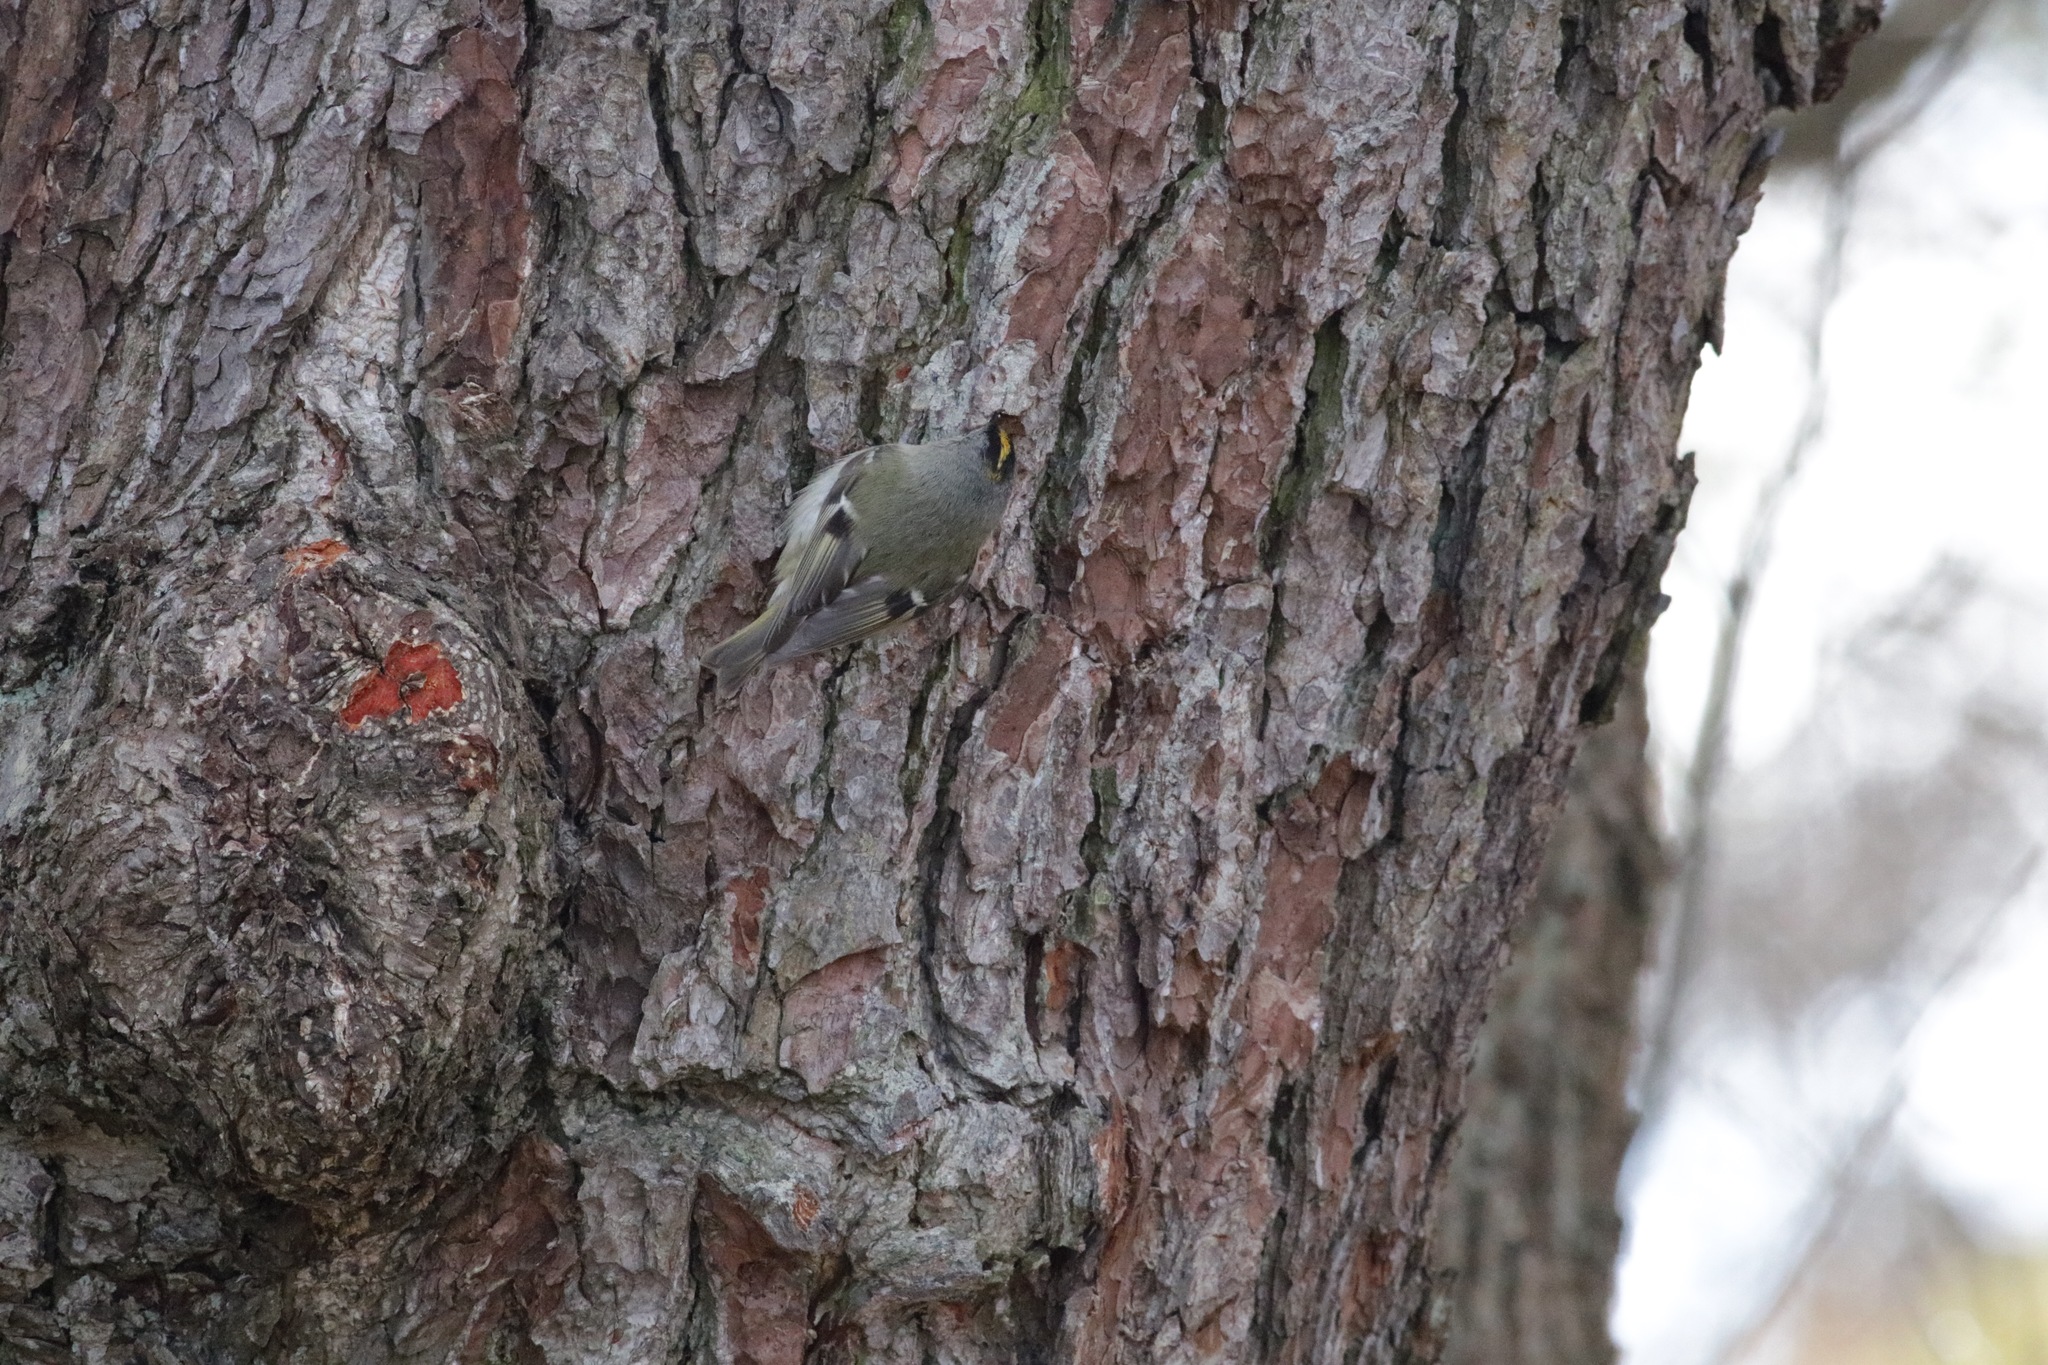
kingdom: Animalia
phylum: Chordata
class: Aves
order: Passeriformes
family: Regulidae
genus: Regulus
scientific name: Regulus regulus
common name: Goldcrest
